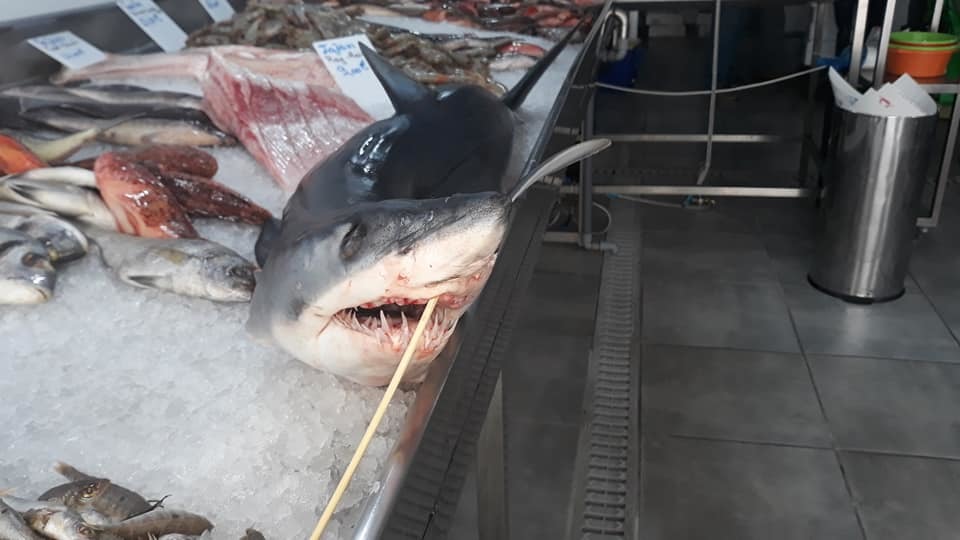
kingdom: Animalia
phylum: Chordata
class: Elasmobranchii
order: Lamniformes
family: Lamnidae
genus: Isurus
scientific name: Isurus oxyrinchus
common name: Shortfin mako
